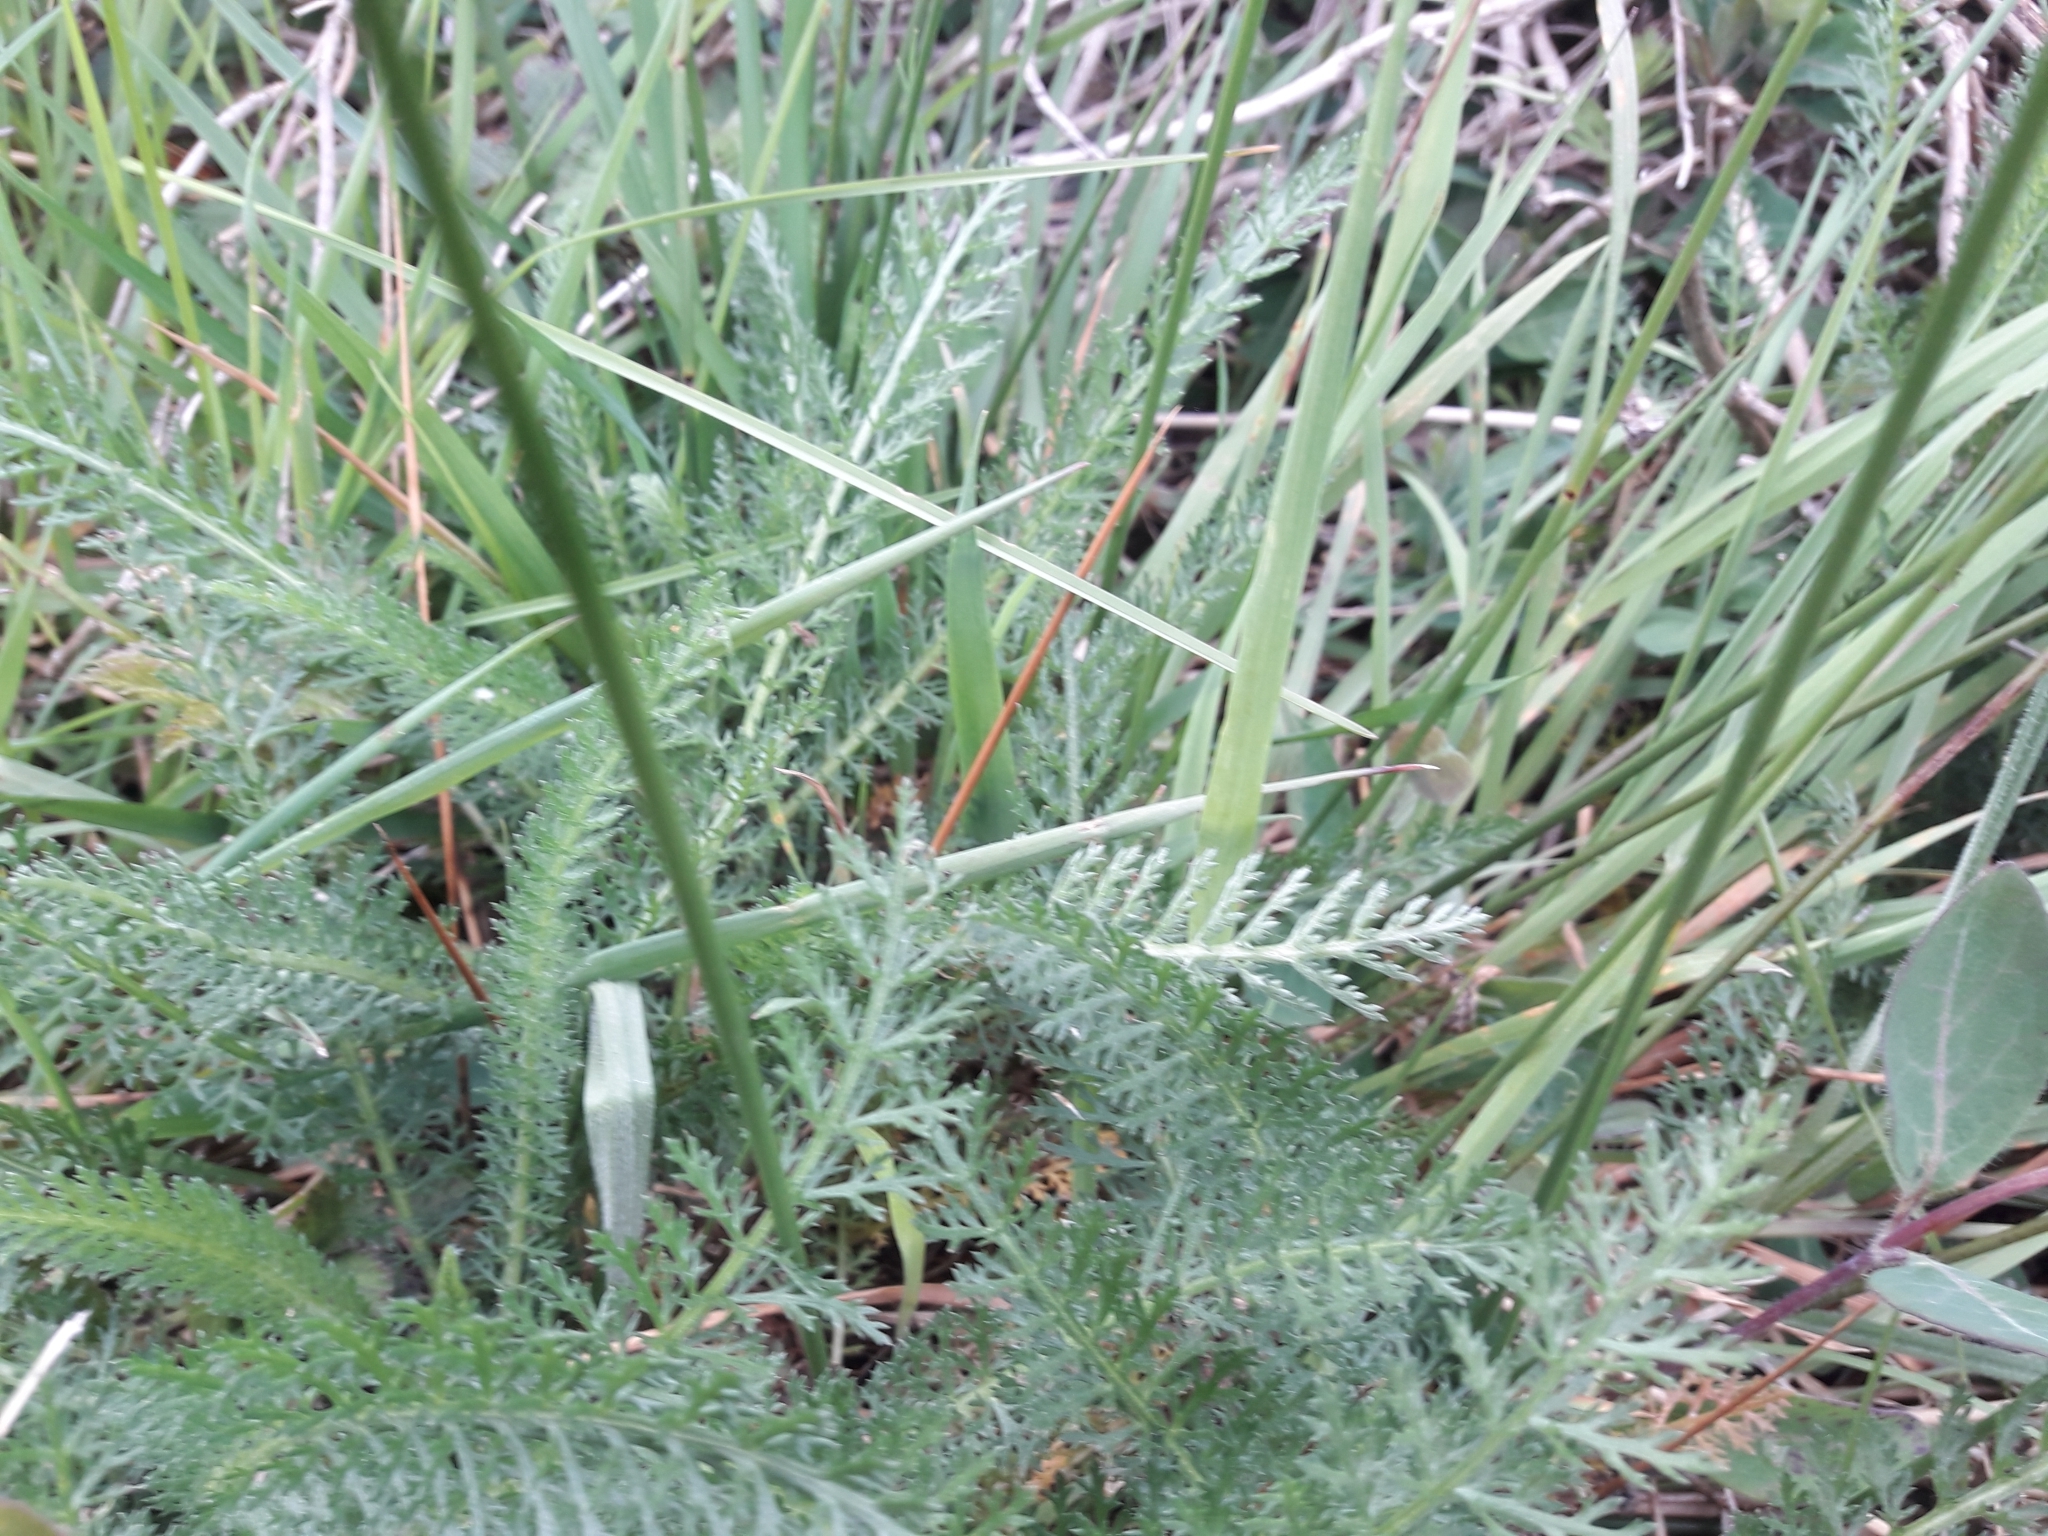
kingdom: Plantae
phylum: Tracheophyta
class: Magnoliopsida
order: Asterales
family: Asteraceae
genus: Achillea
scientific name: Achillea millefolium
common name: Yarrow
